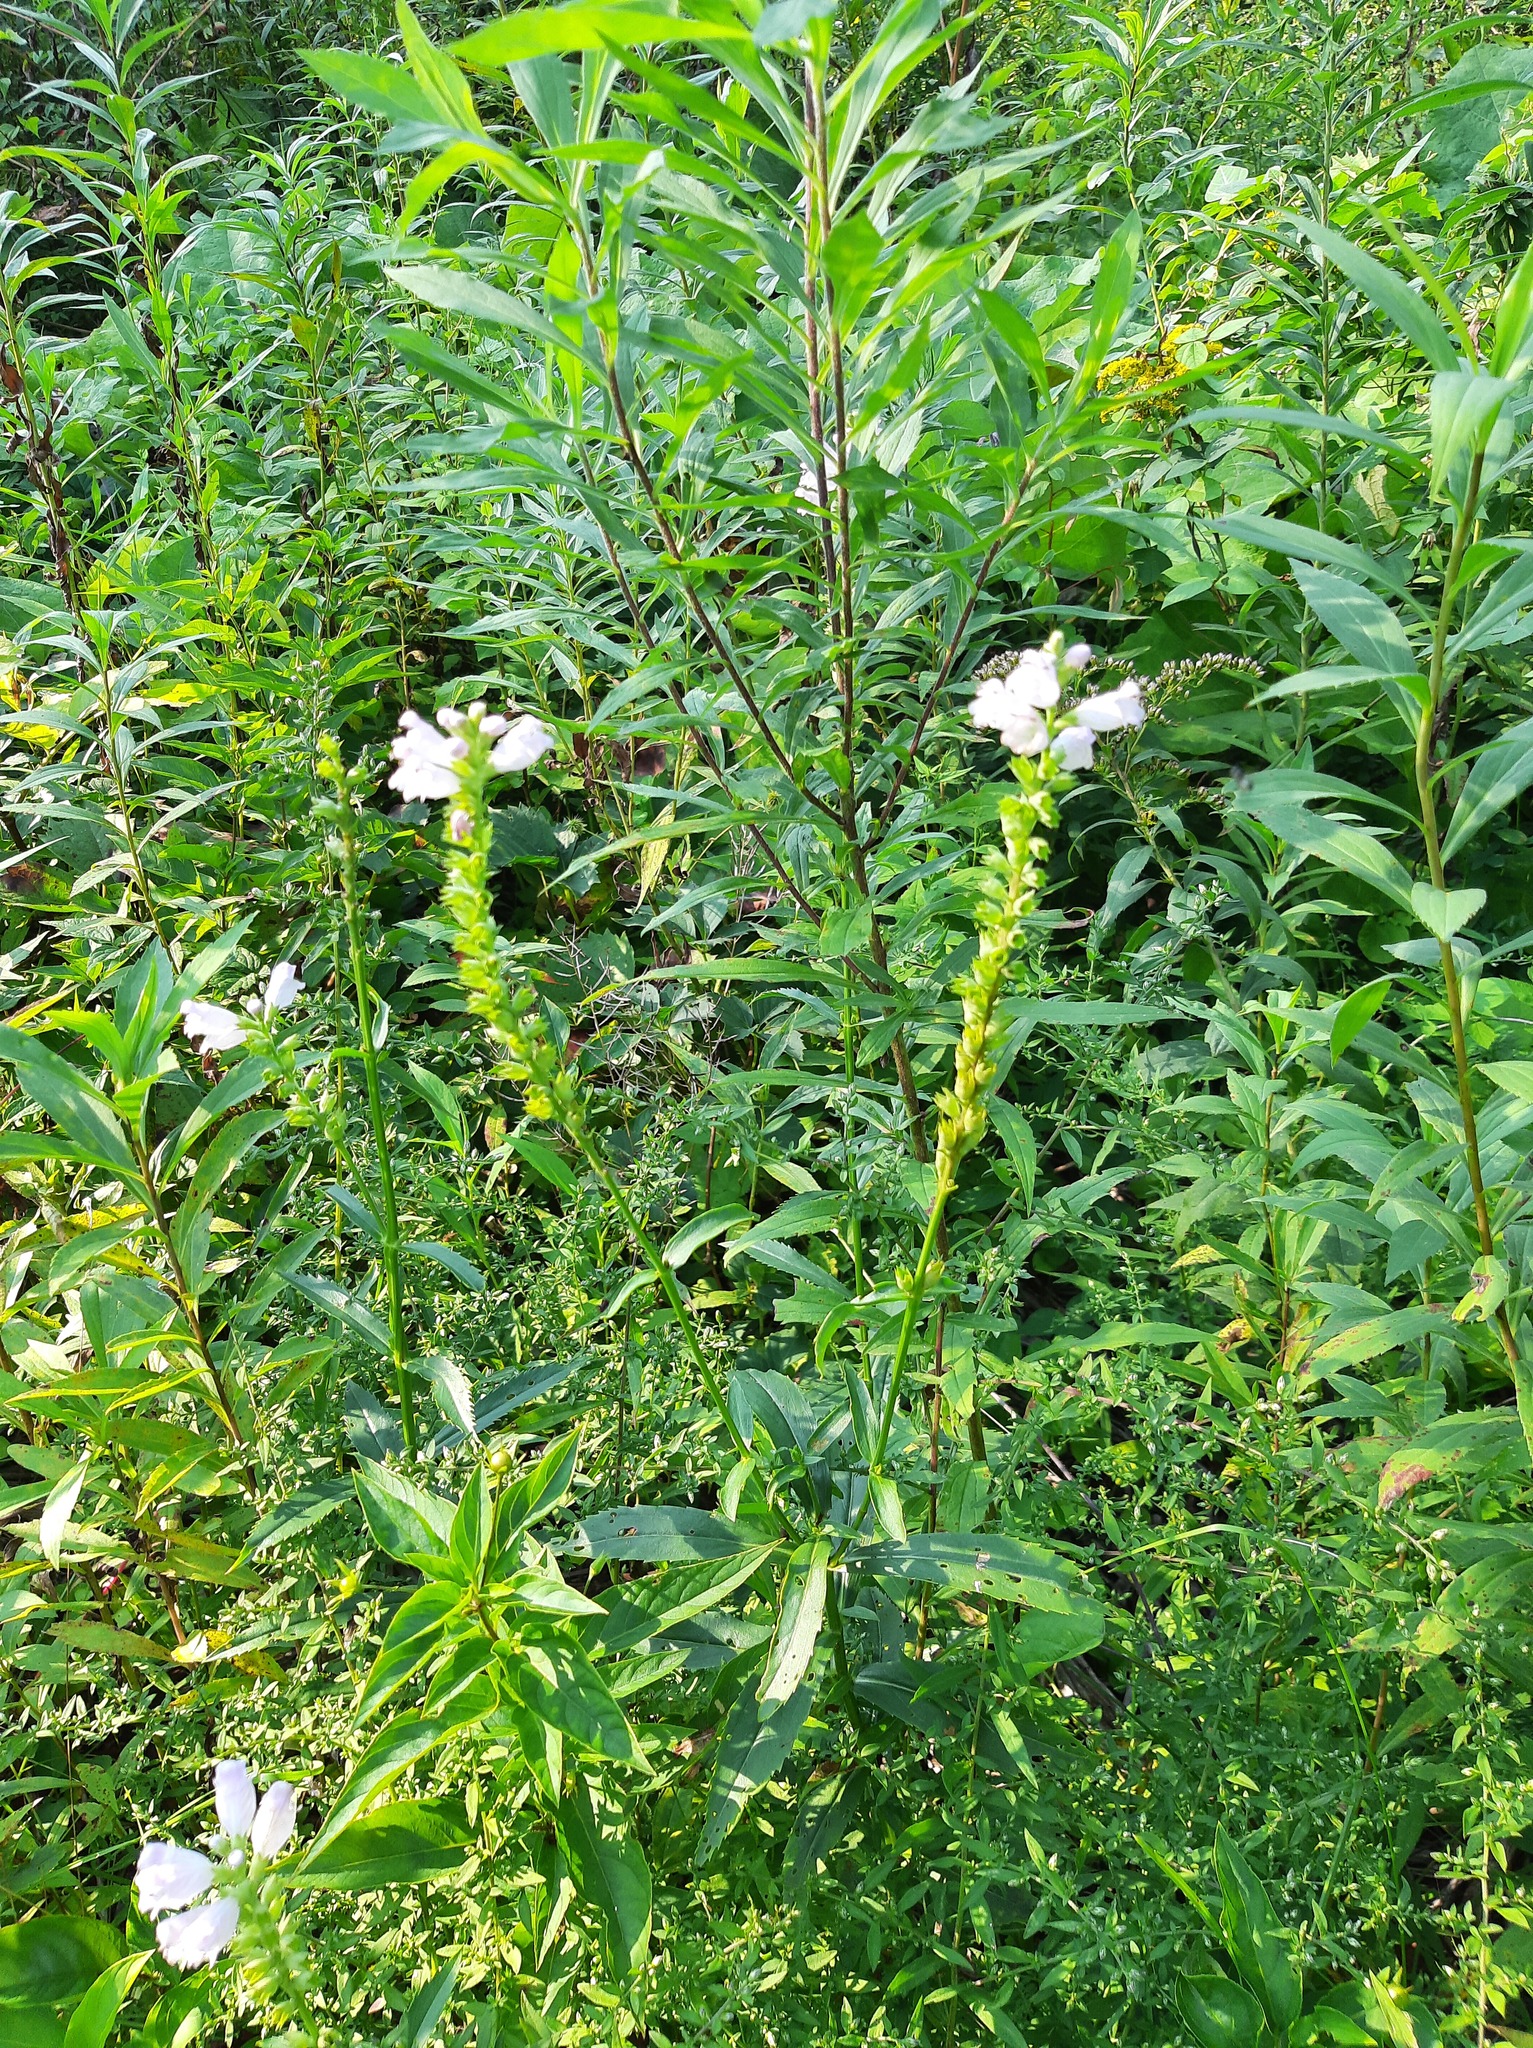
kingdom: Plantae
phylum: Tracheophyta
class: Magnoliopsida
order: Lamiales
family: Lamiaceae
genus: Physostegia
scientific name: Physostegia virginiana
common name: Obedient-plant
